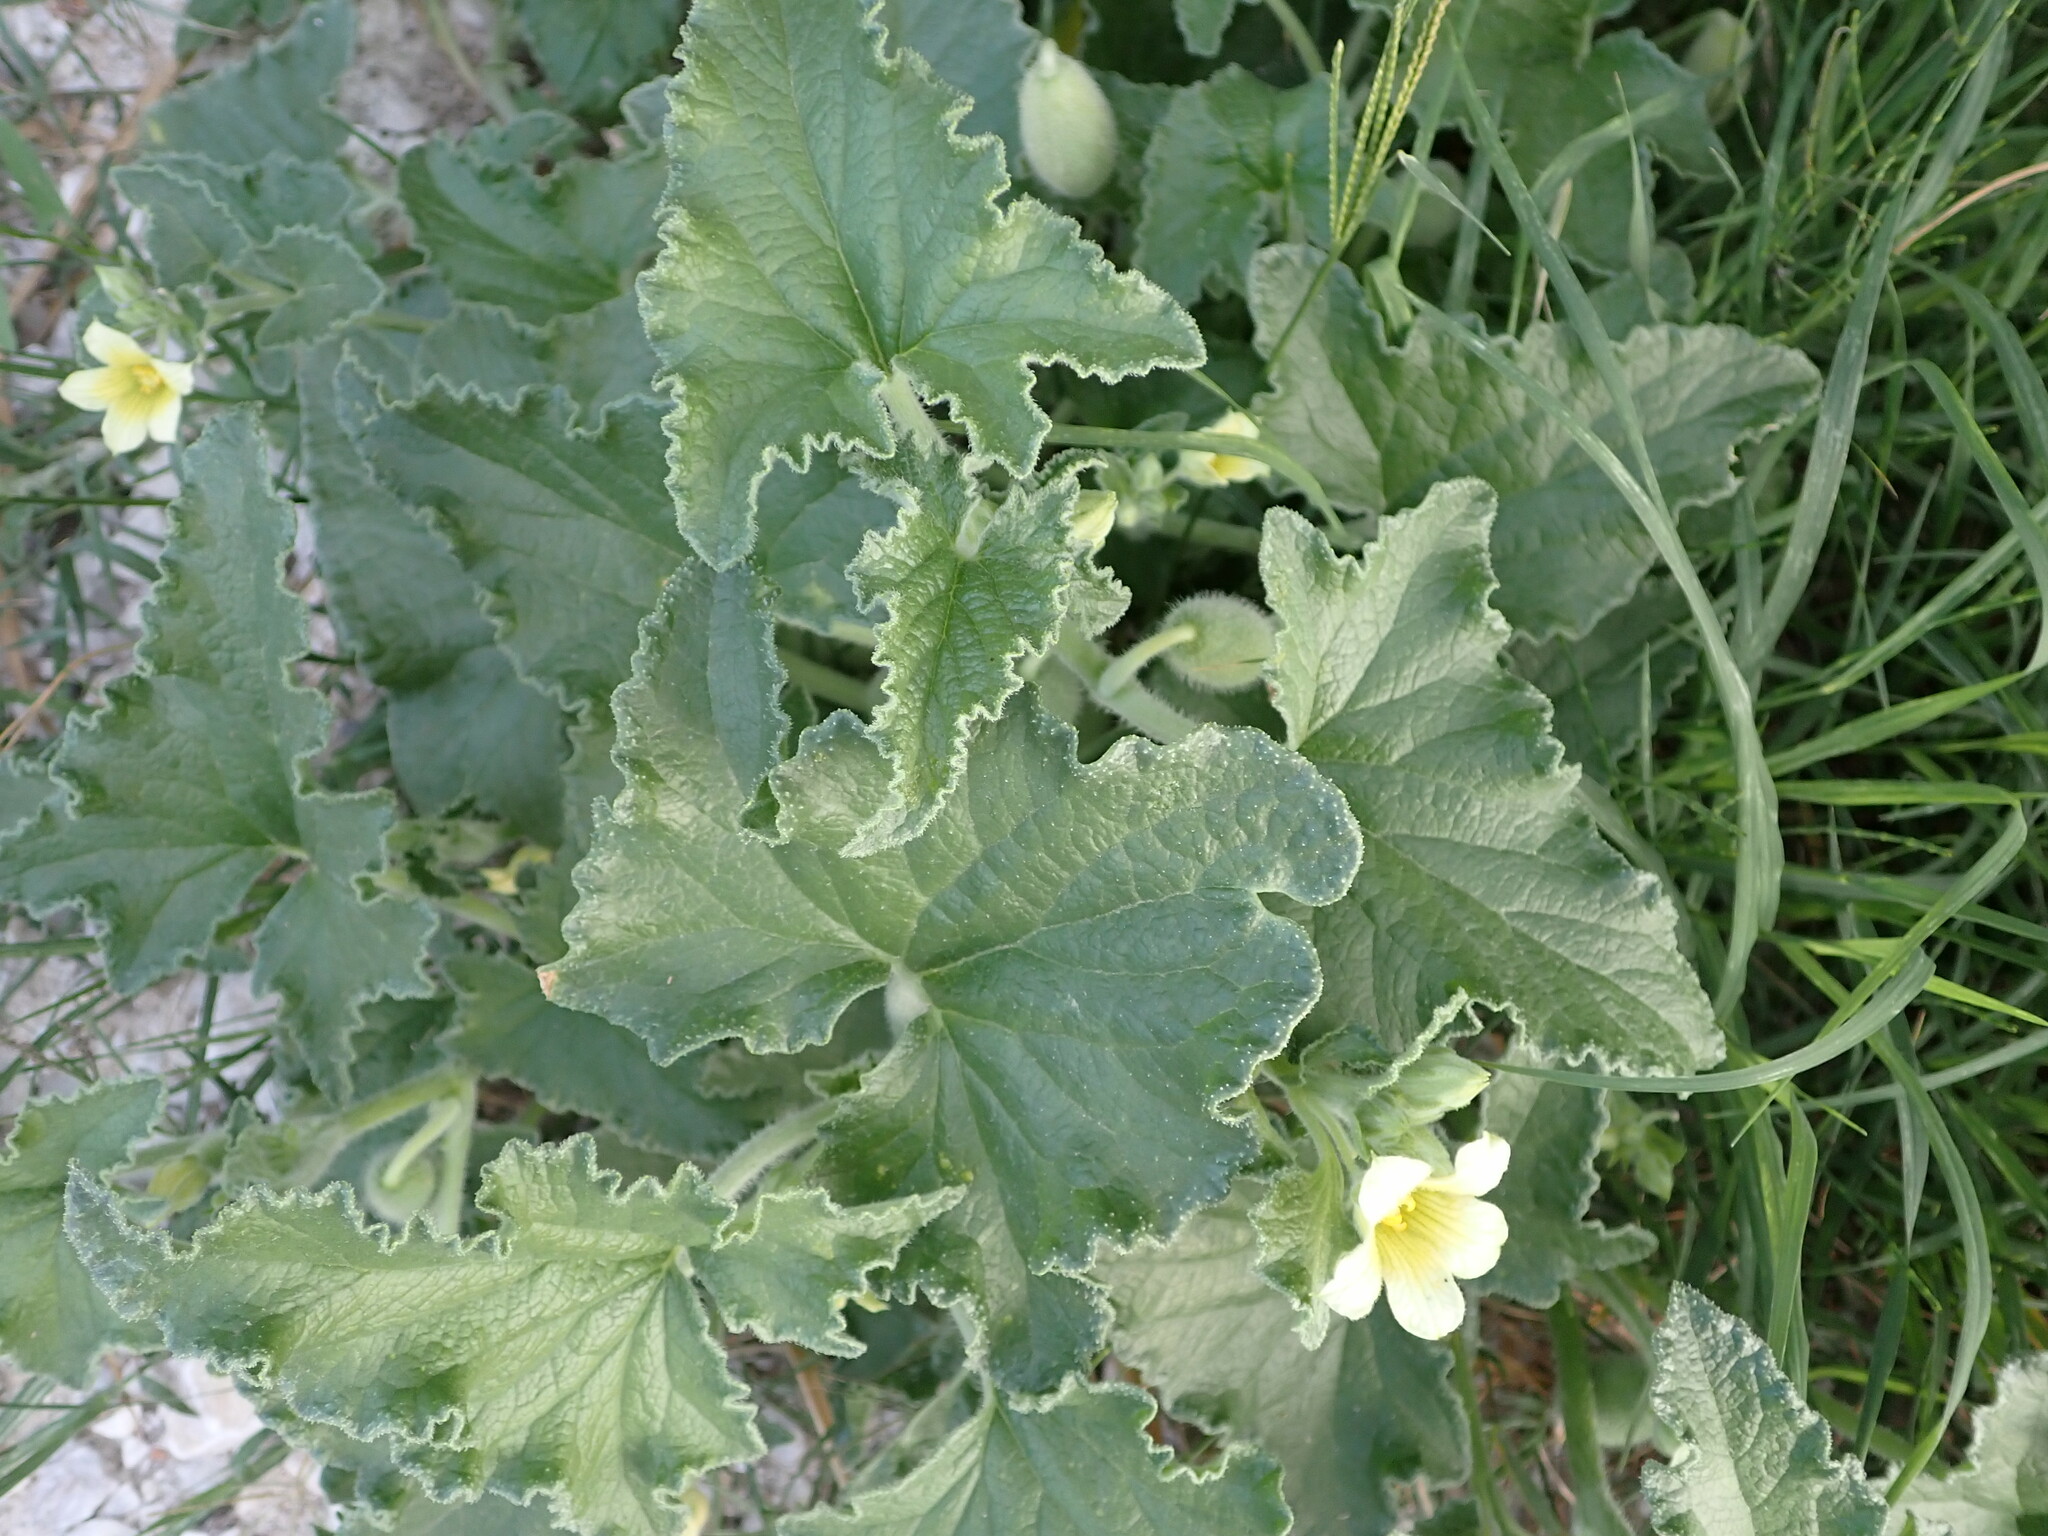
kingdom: Plantae
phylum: Tracheophyta
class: Magnoliopsida
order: Cucurbitales
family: Cucurbitaceae
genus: Ecballium
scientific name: Ecballium elaterium
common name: Squirting cucumber
